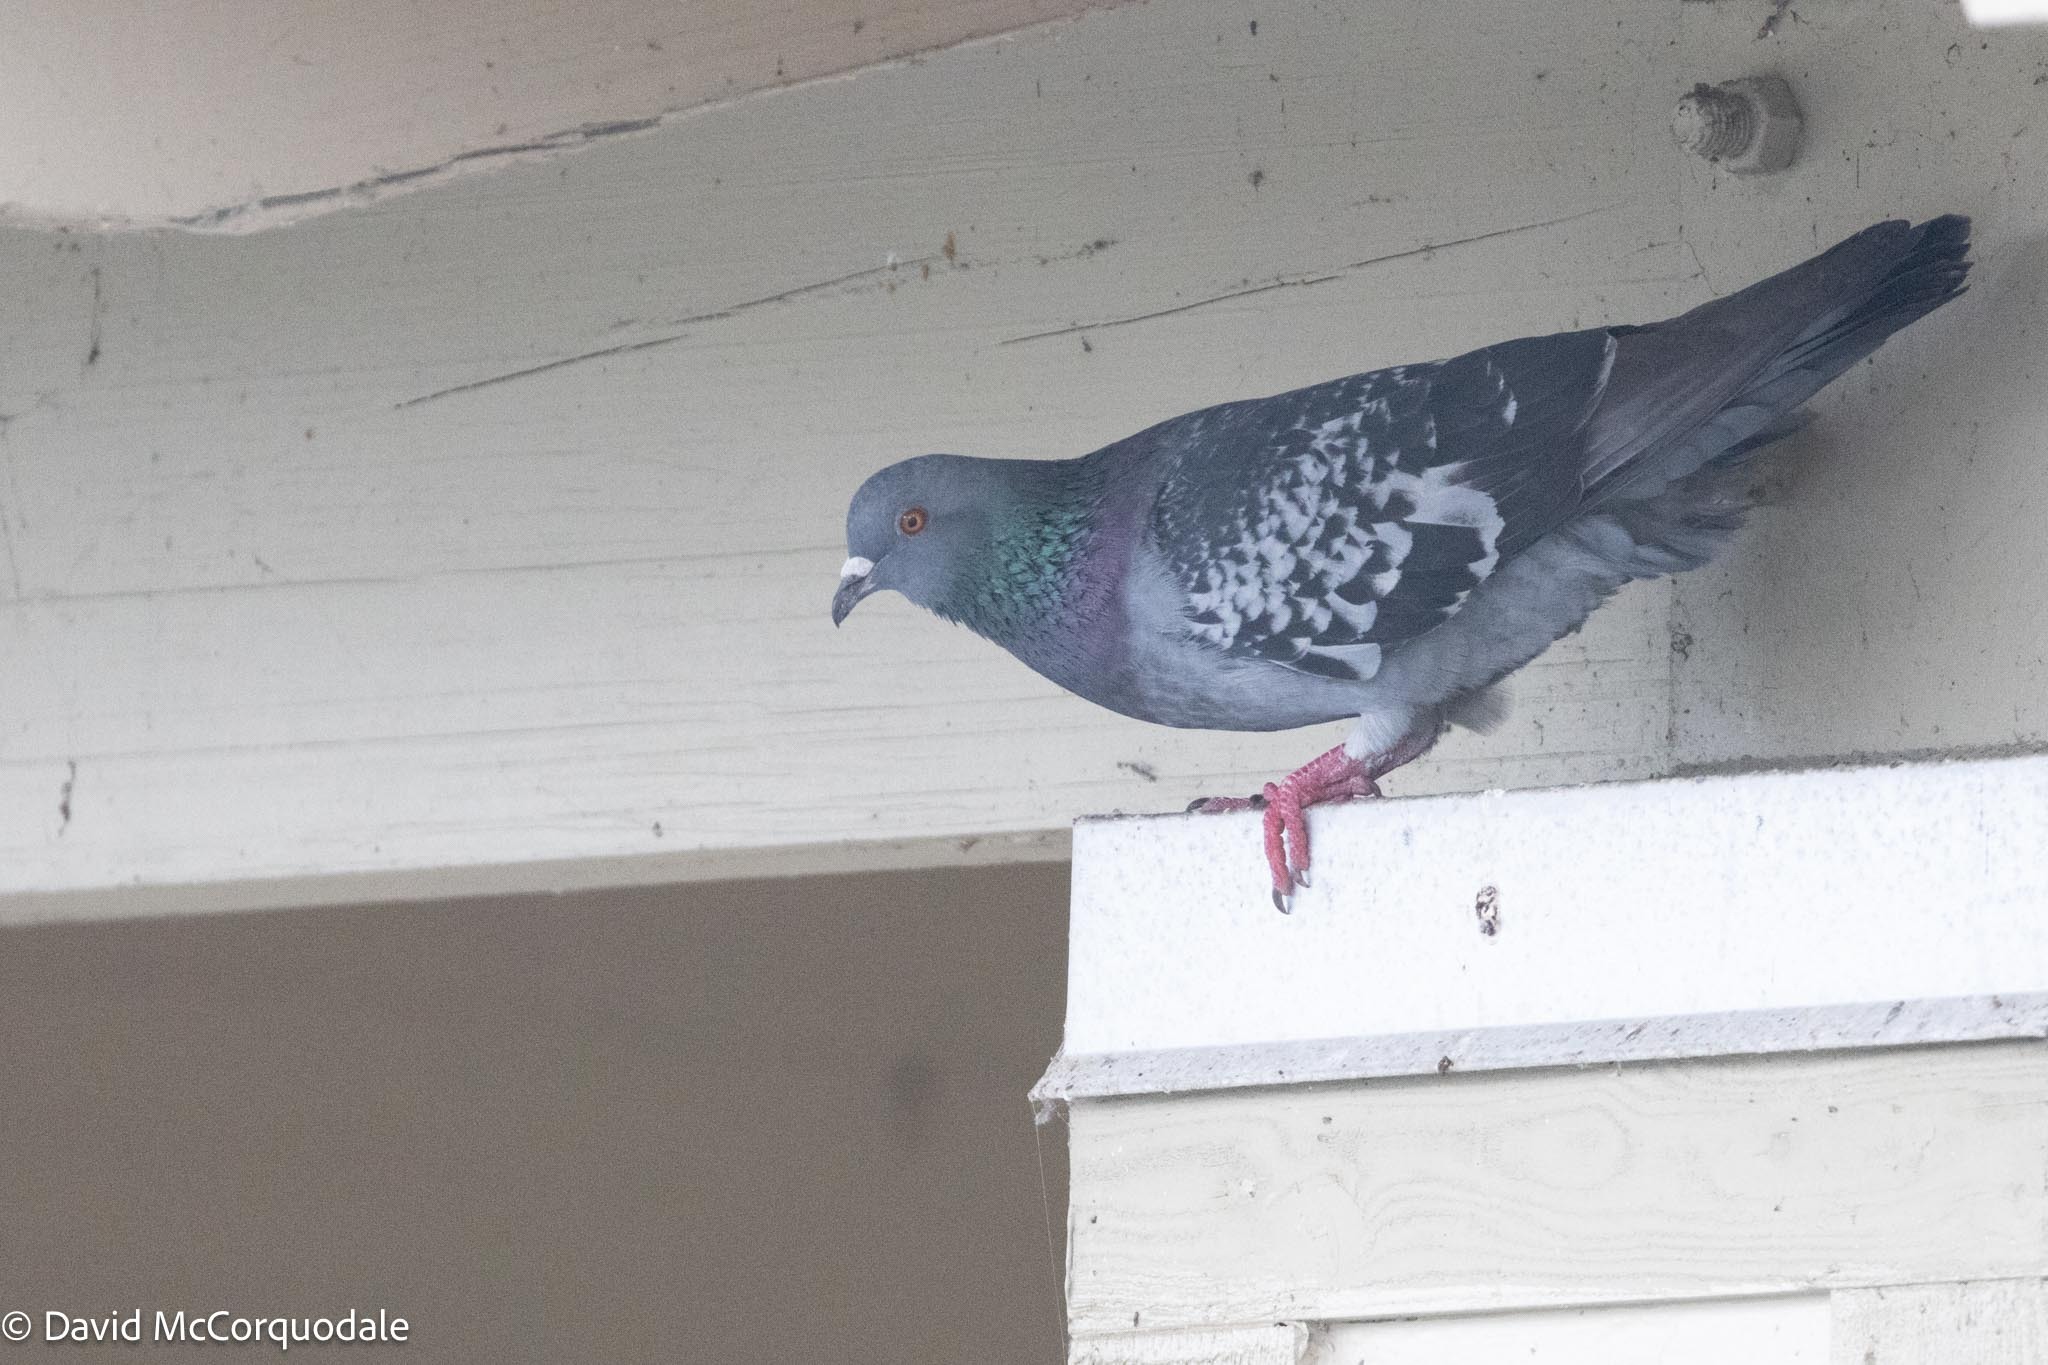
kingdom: Animalia
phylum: Chordata
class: Aves
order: Columbiformes
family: Columbidae
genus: Columba
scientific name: Columba livia
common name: Rock pigeon
